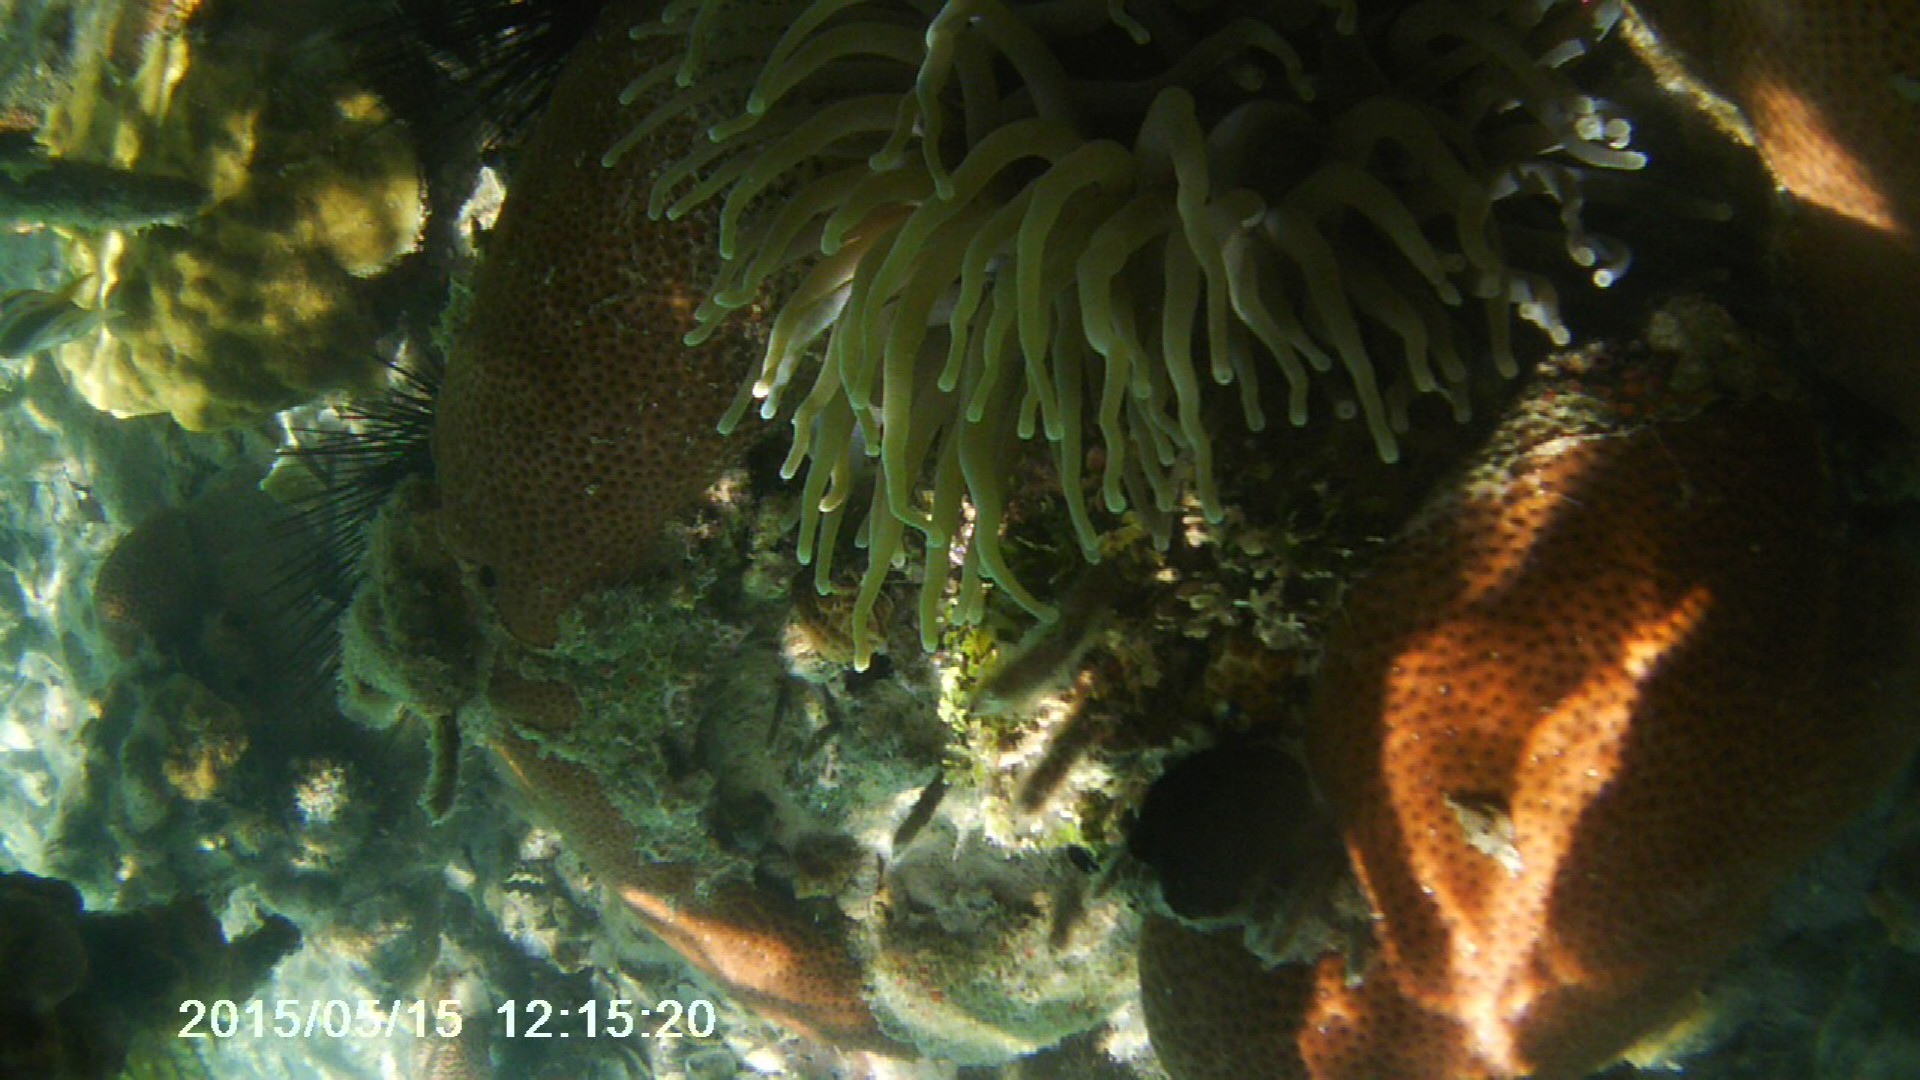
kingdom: Animalia
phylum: Cnidaria
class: Anthozoa
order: Actiniaria
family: Actiniidae
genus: Condylactis
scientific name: Condylactis gigantea
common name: Giant caribbean anemone
